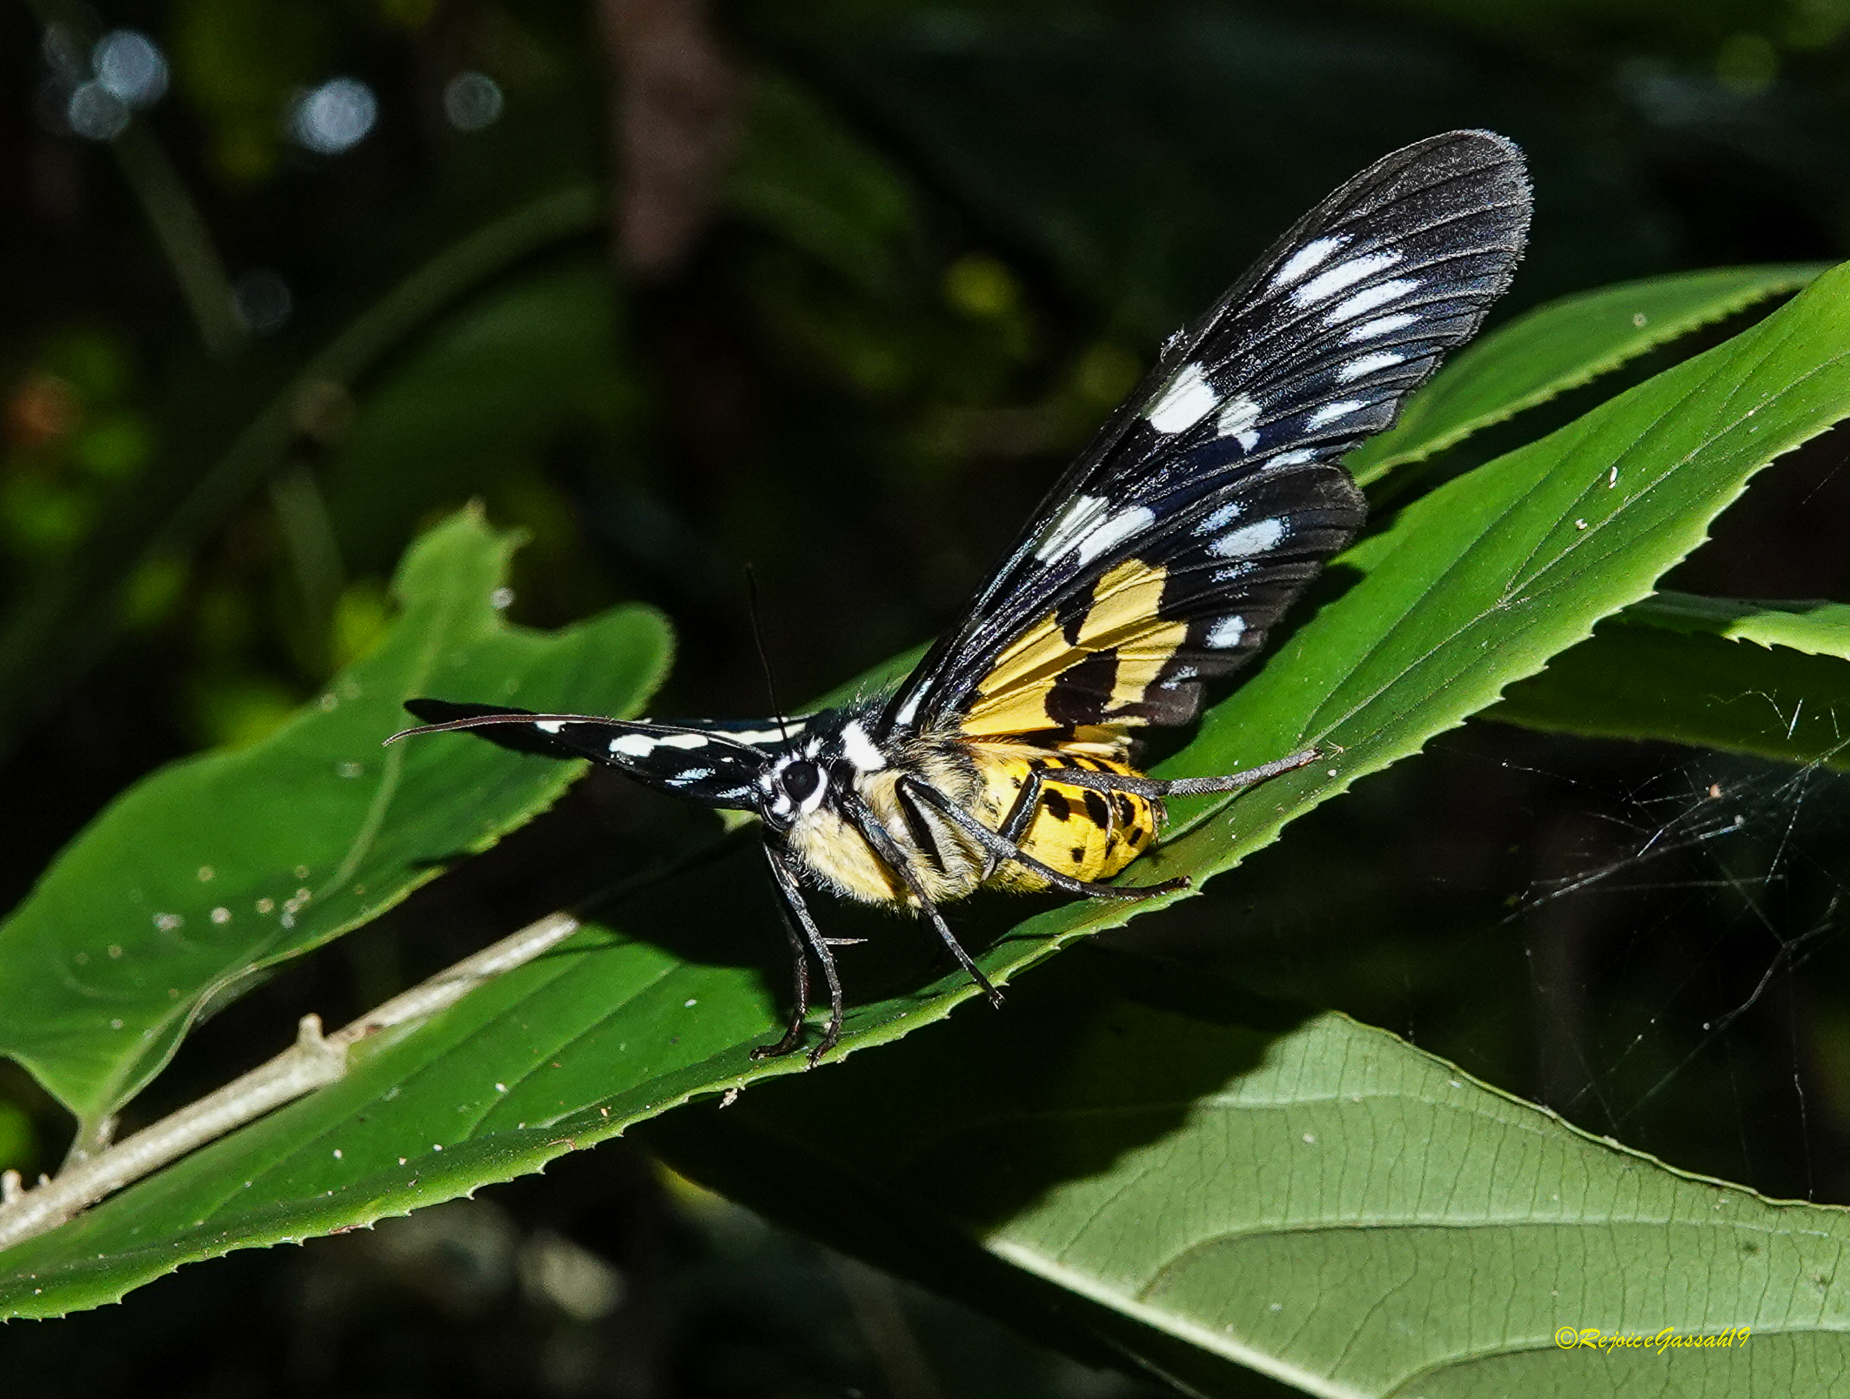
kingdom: Animalia
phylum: Arthropoda
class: Insecta
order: Lepidoptera
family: Geometridae
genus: Dysphania
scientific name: Dysphania militaris
